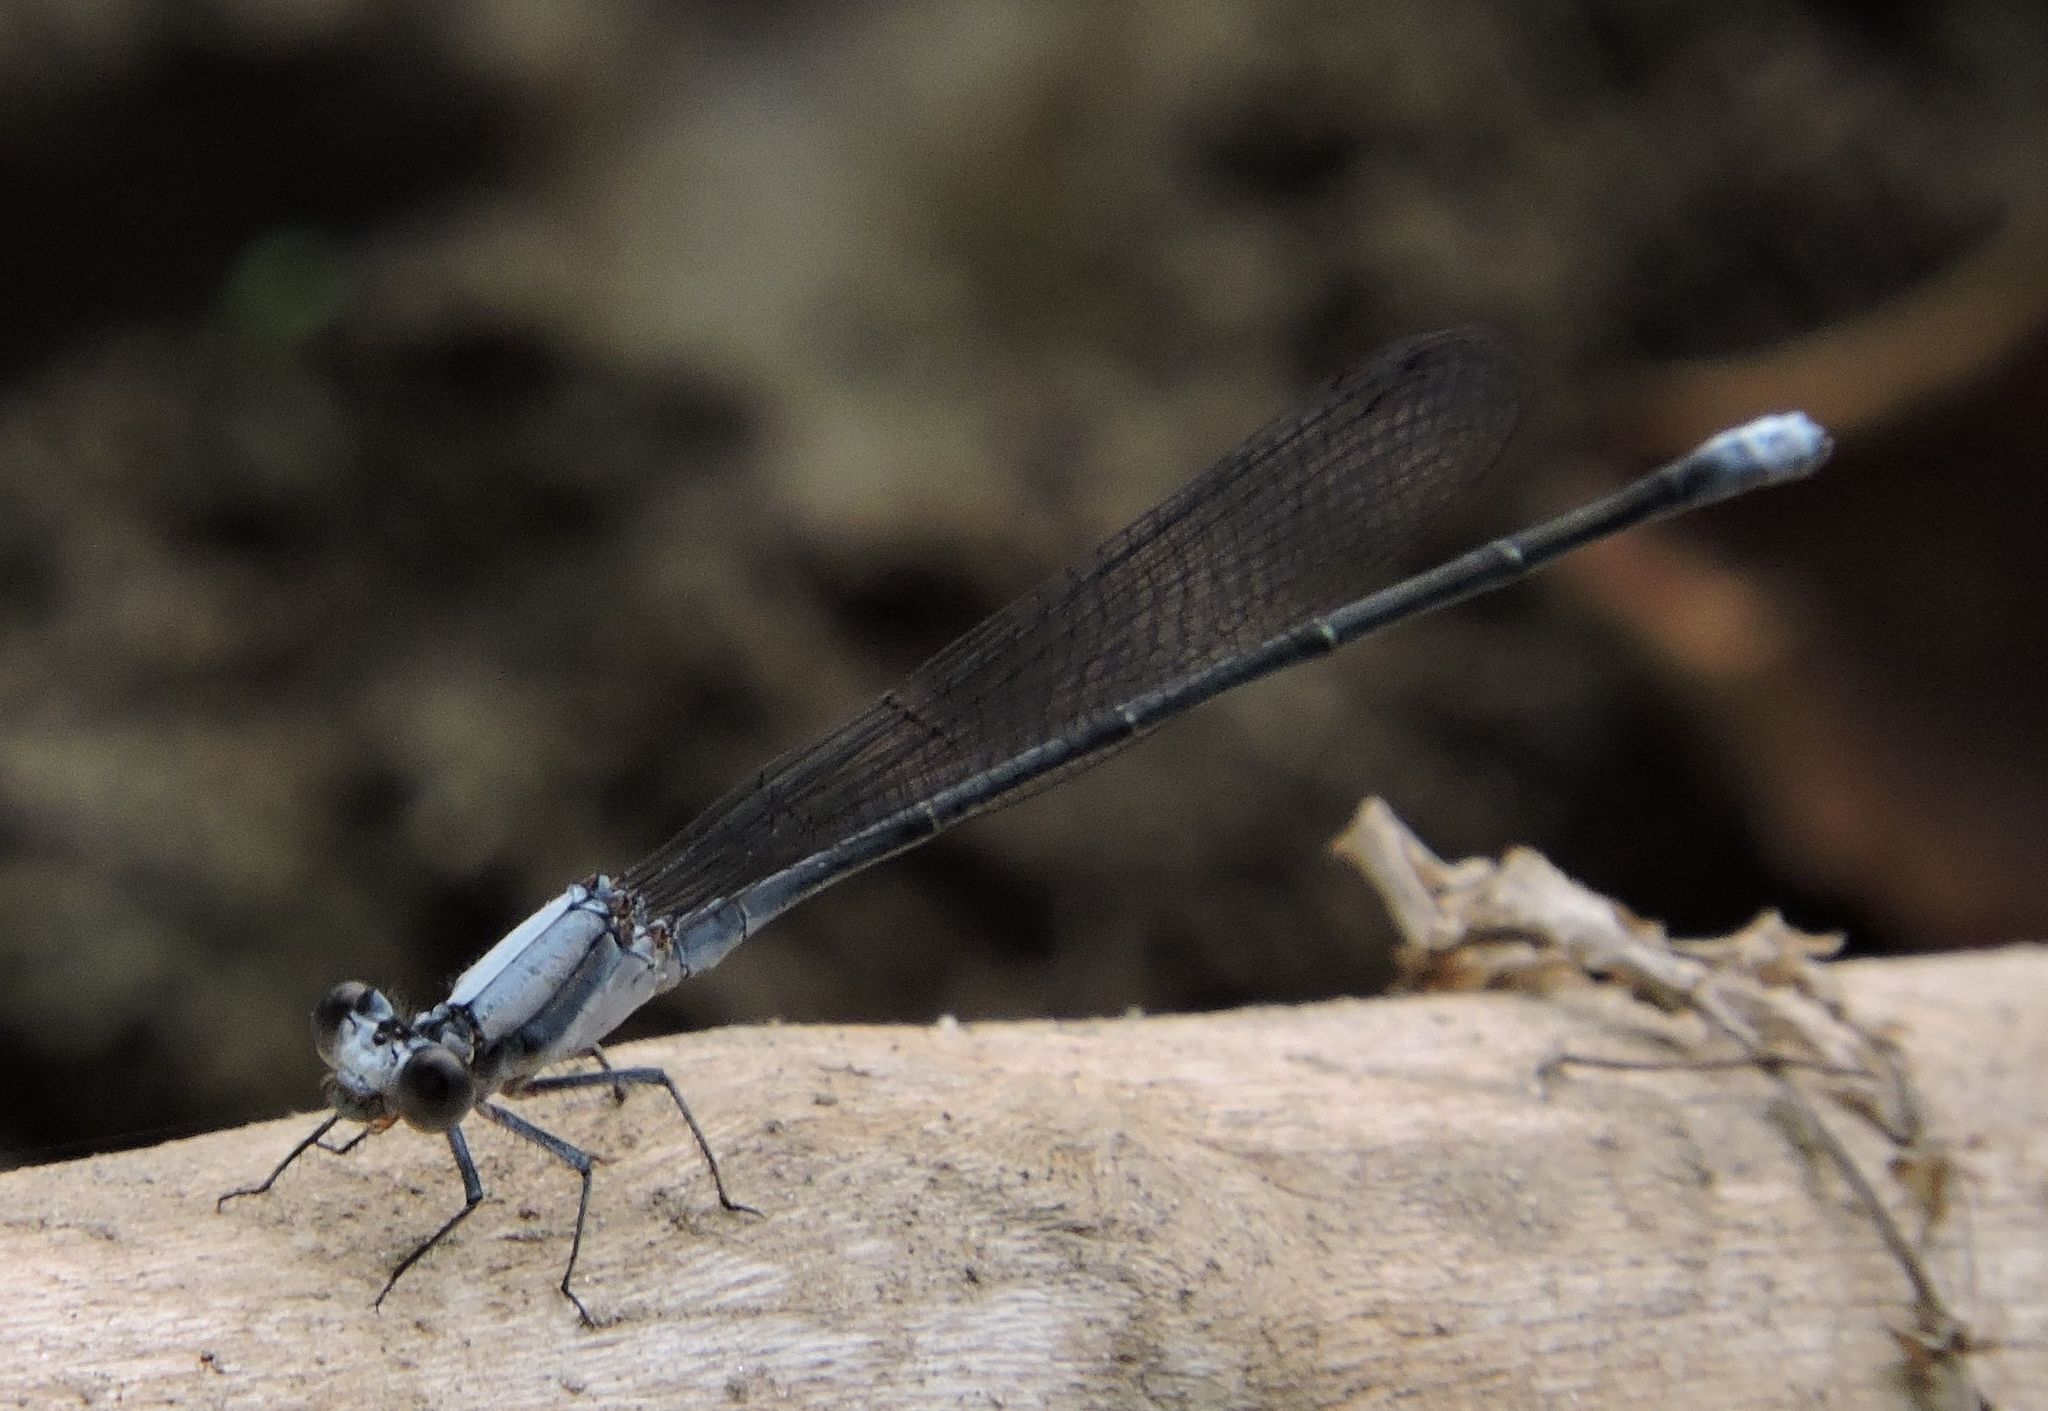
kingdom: Animalia
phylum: Arthropoda
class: Insecta
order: Odonata
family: Coenagrionidae
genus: Argia
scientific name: Argia moesta
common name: Powdered dancer
